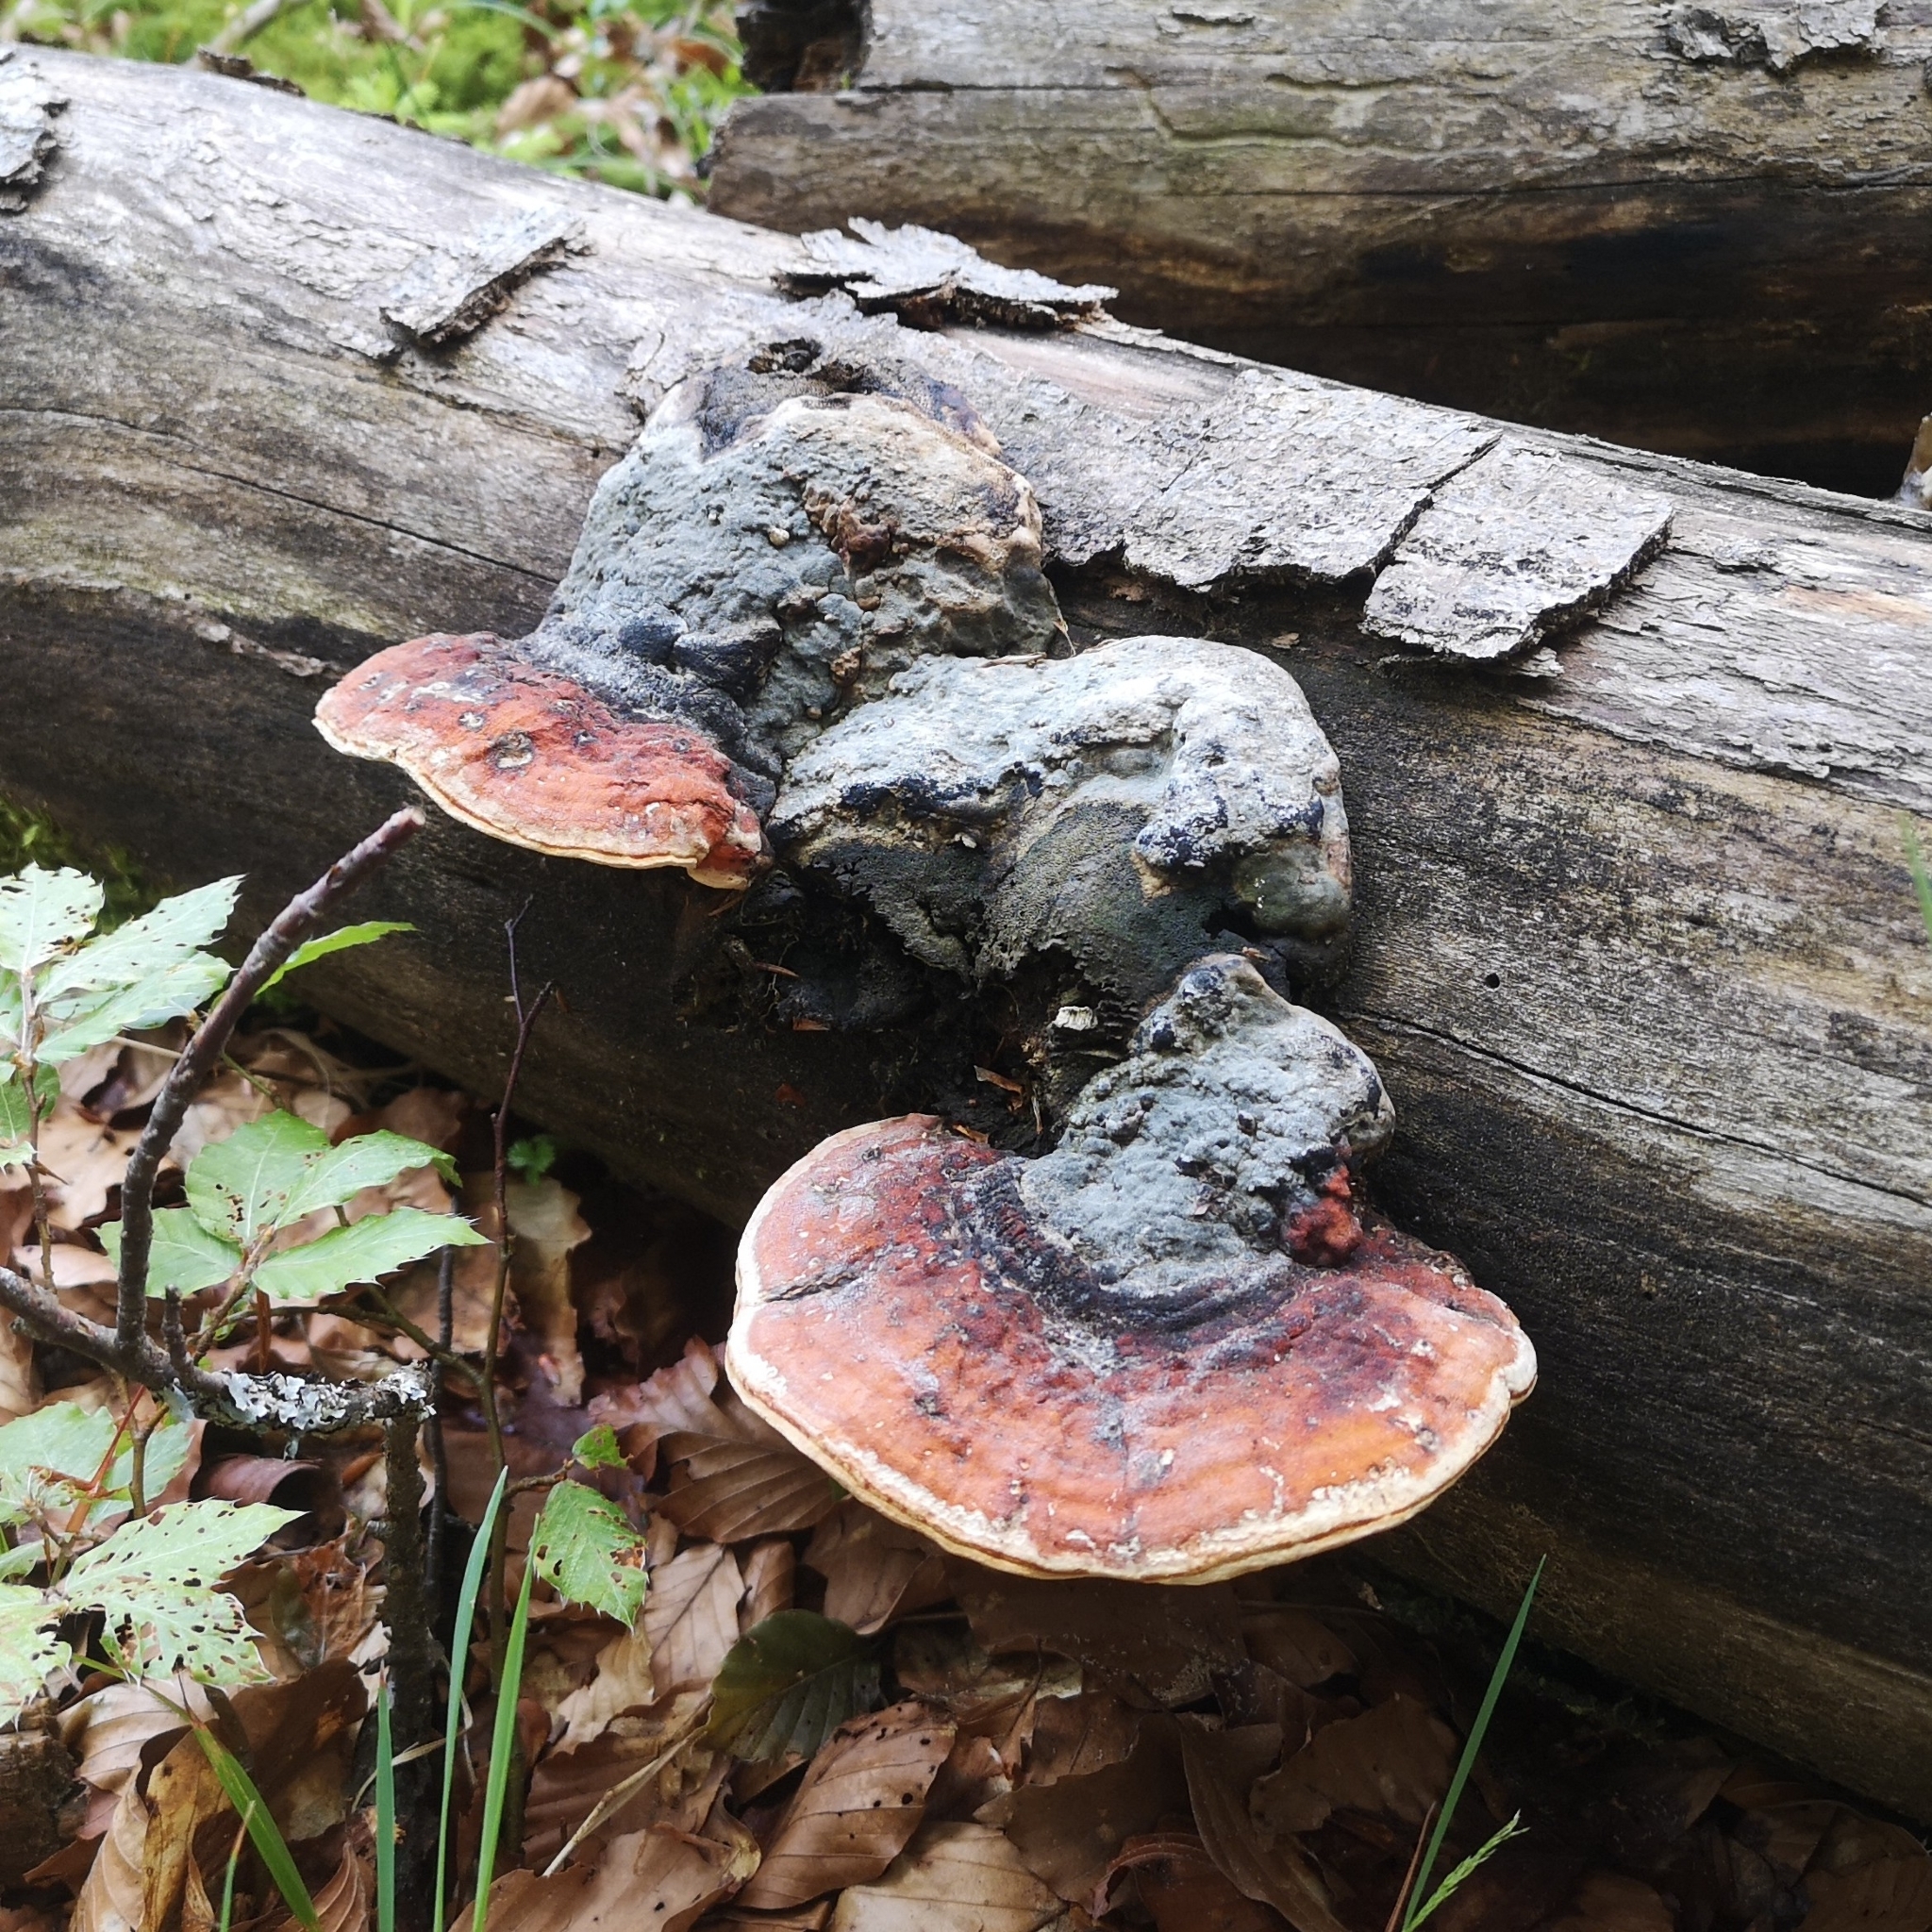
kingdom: Fungi
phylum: Basidiomycota
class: Agaricomycetes
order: Polyporales
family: Fomitopsidaceae
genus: Fomitopsis
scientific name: Fomitopsis pinicola
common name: Red-belted bracket
